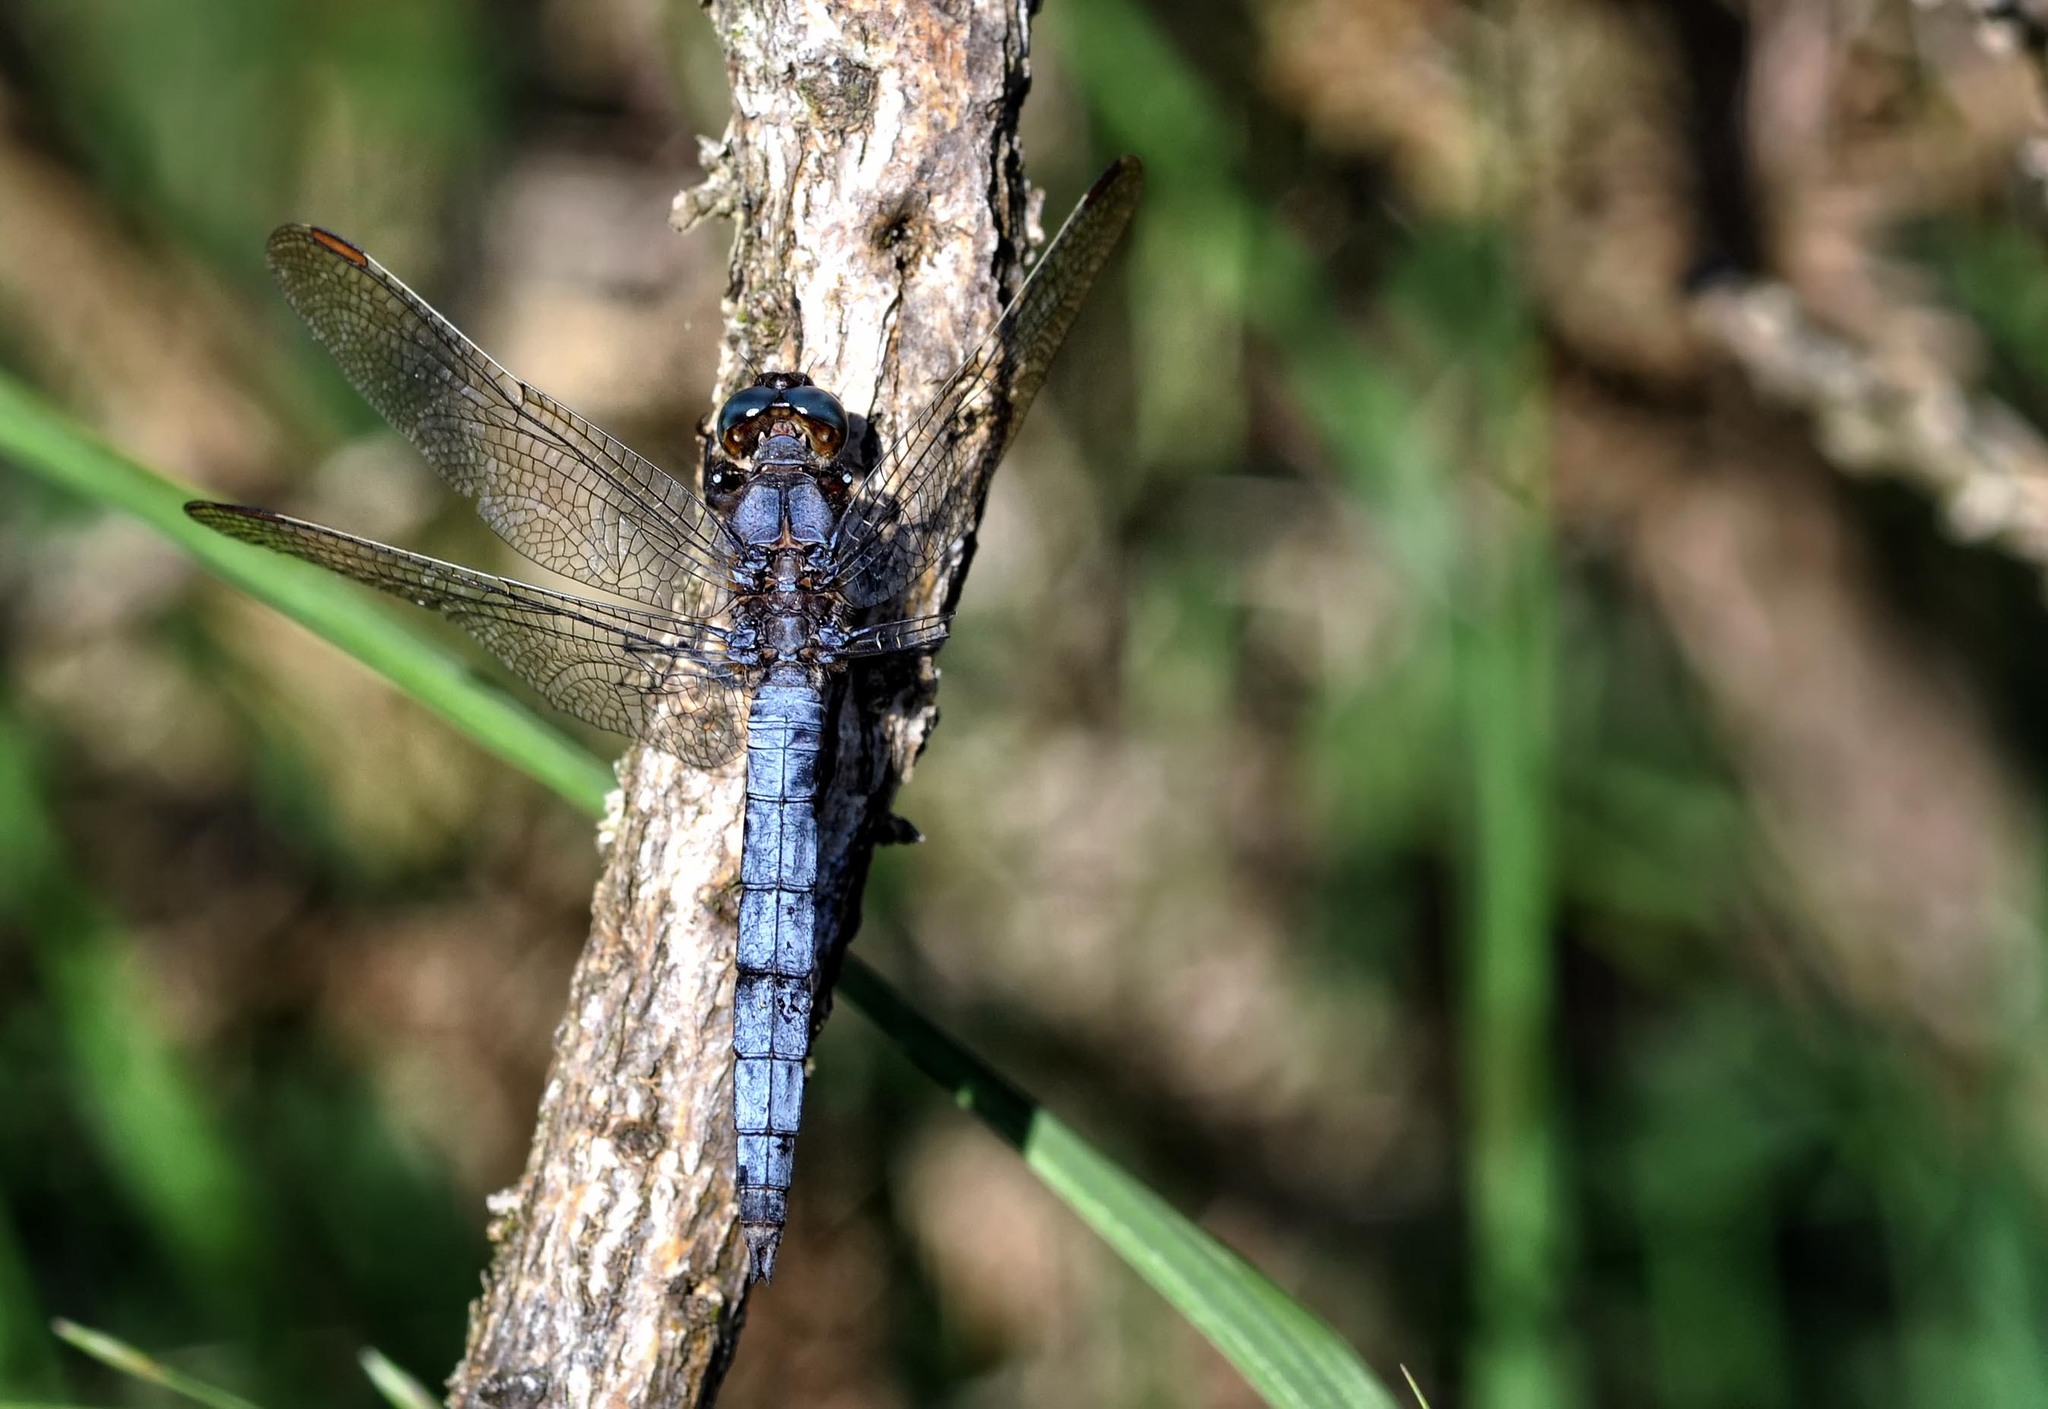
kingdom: Animalia
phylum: Arthropoda
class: Insecta
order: Odonata
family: Libellulidae
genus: Orthetrum
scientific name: Orthetrum coerulescens
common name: Keeled skimmer
